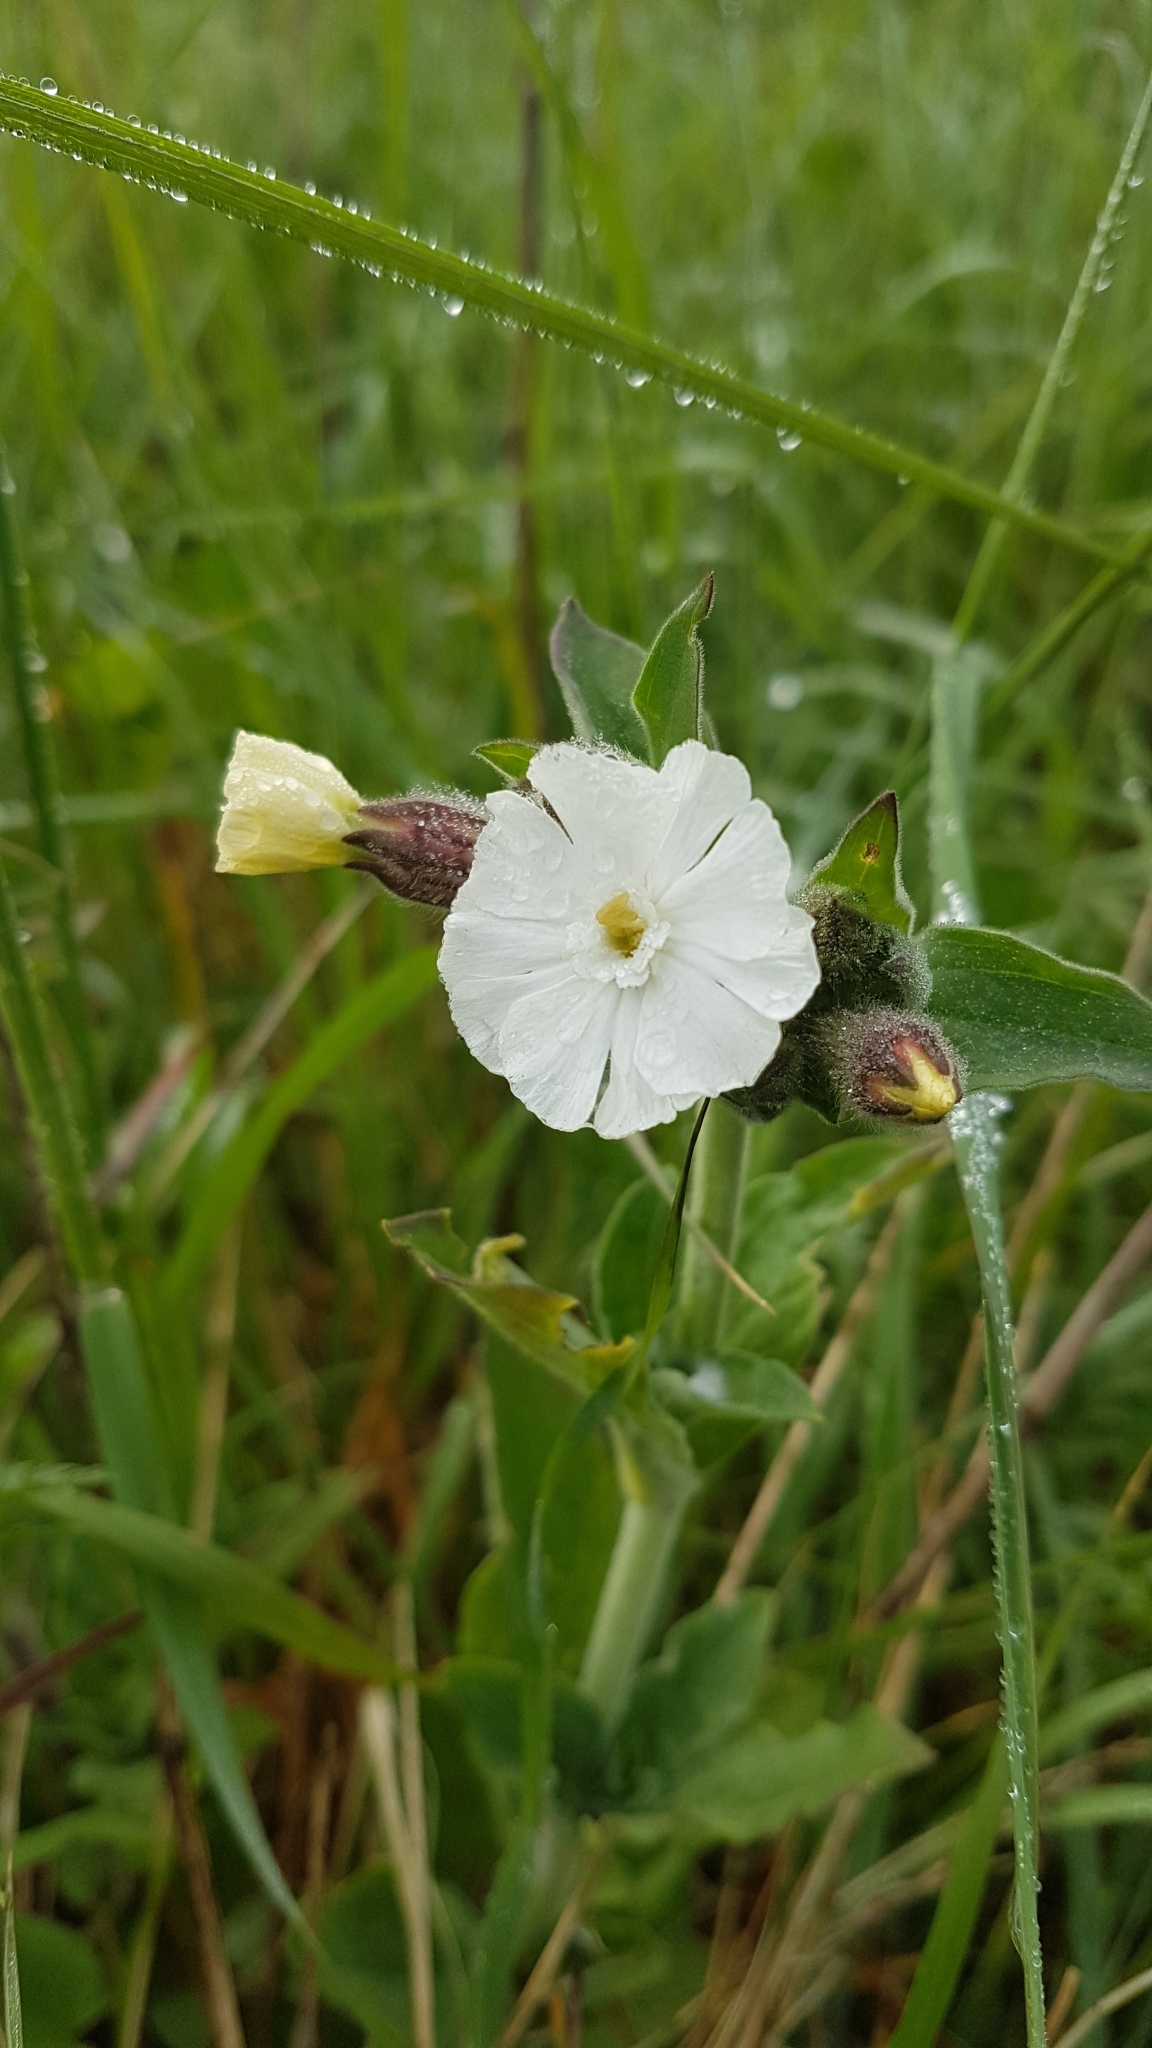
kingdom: Plantae
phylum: Tracheophyta
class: Magnoliopsida
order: Caryophyllales
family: Caryophyllaceae
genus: Silene
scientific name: Silene latifolia
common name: White campion
